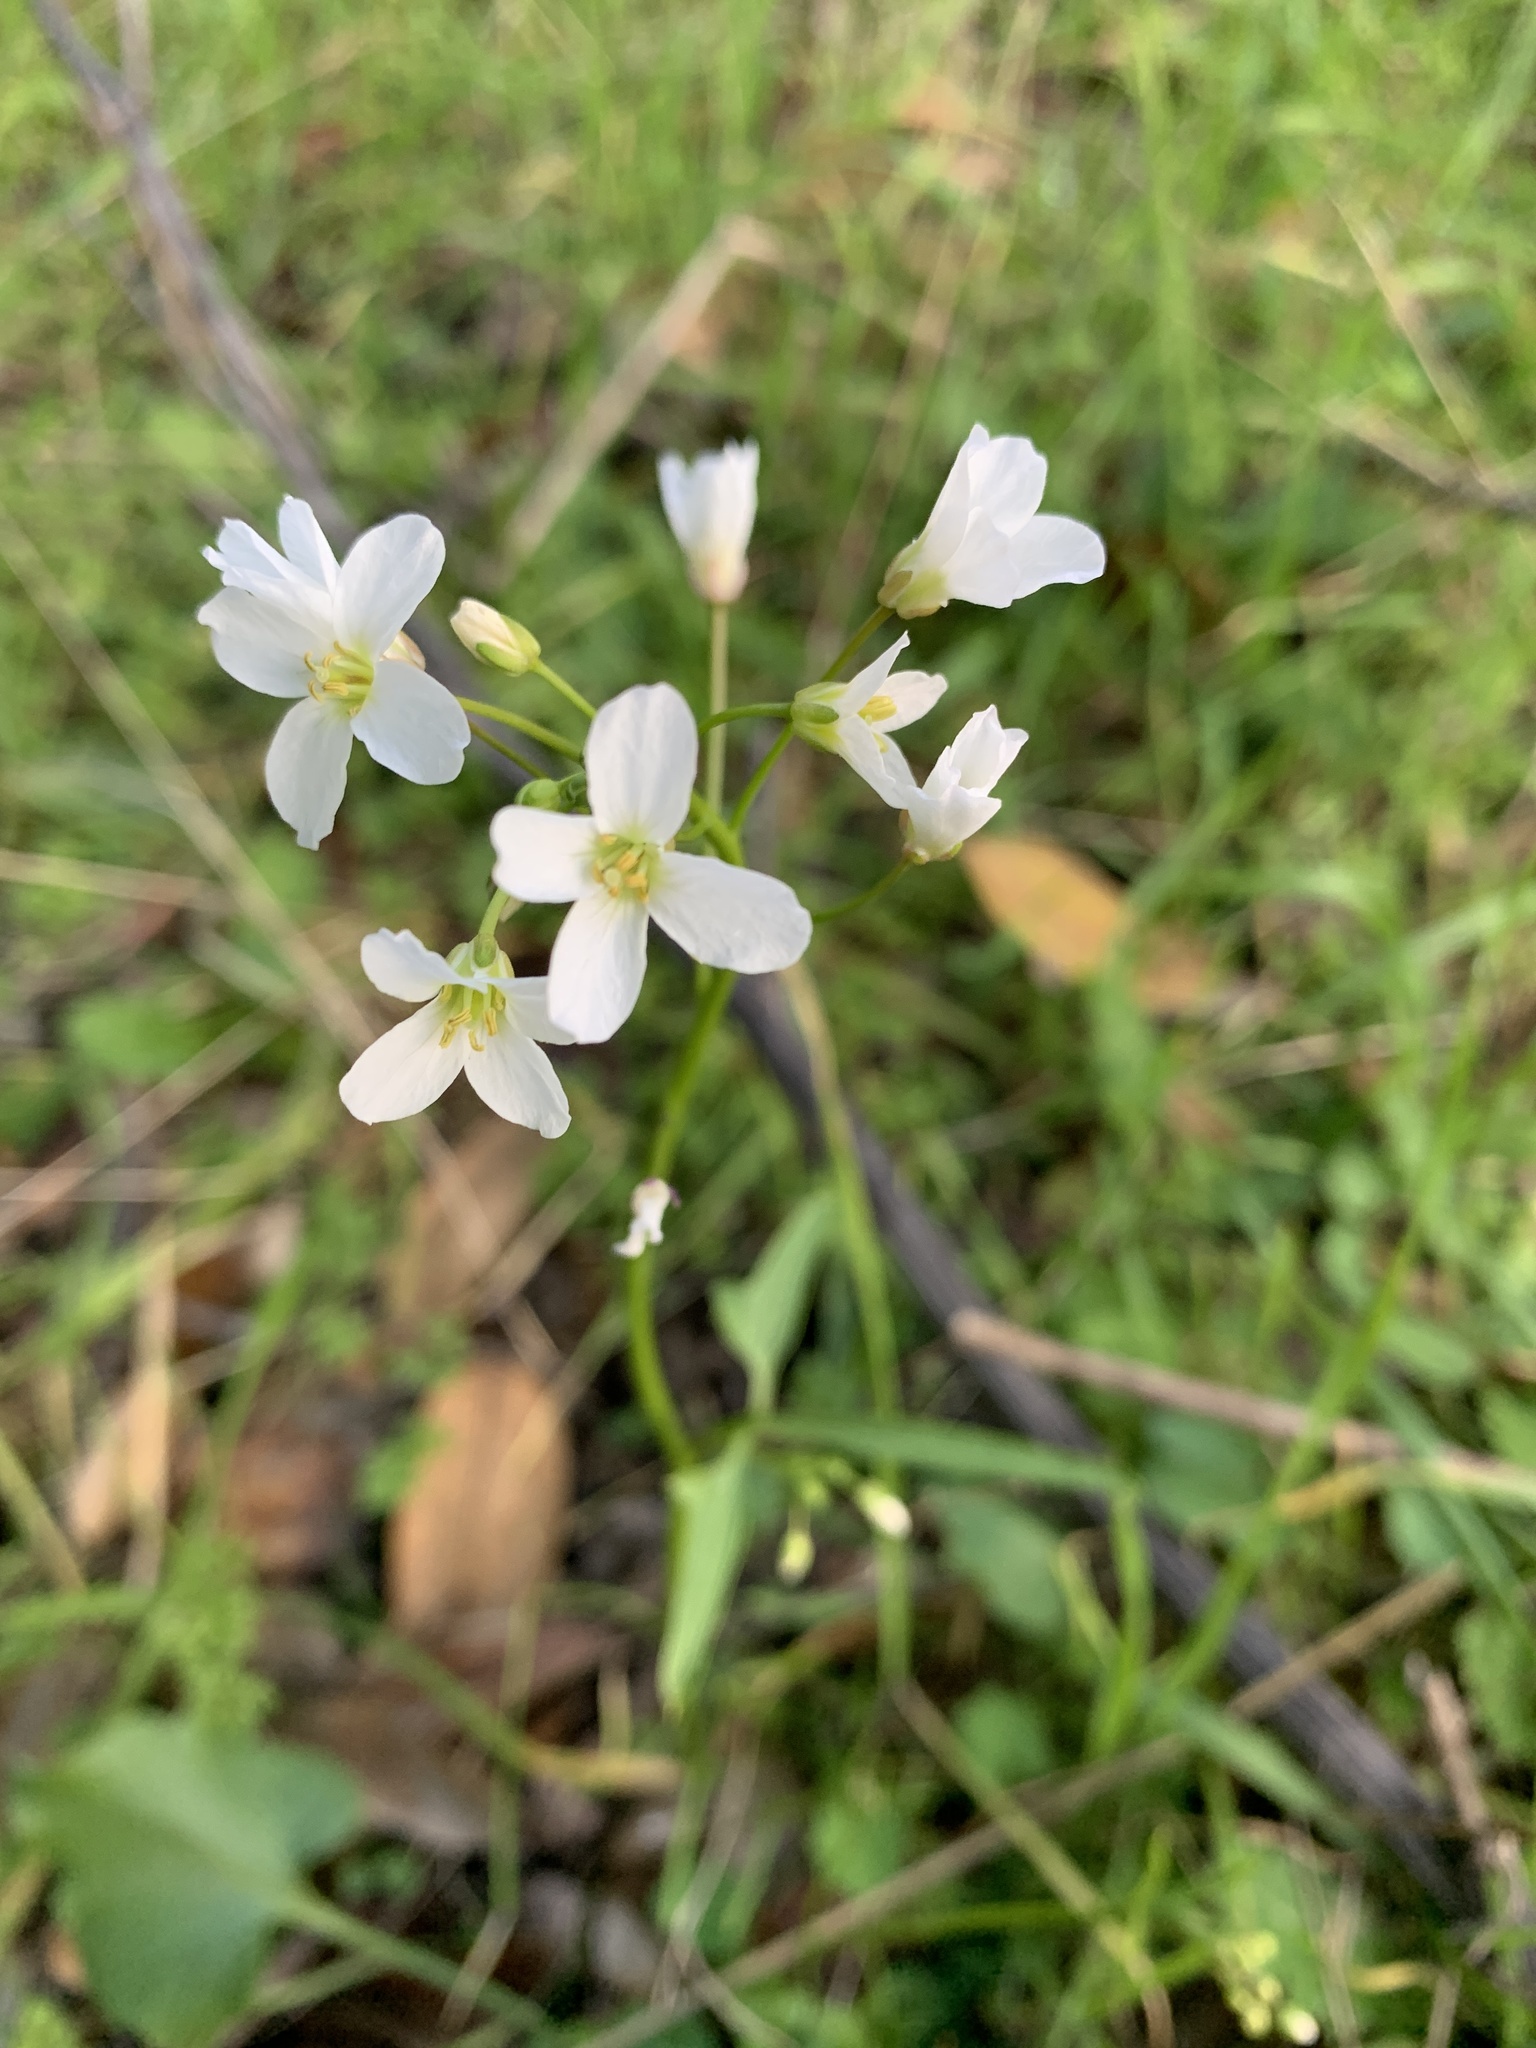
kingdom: Plantae
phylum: Tracheophyta
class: Magnoliopsida
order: Brassicales
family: Brassicaceae
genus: Cardamine
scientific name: Cardamine californica
